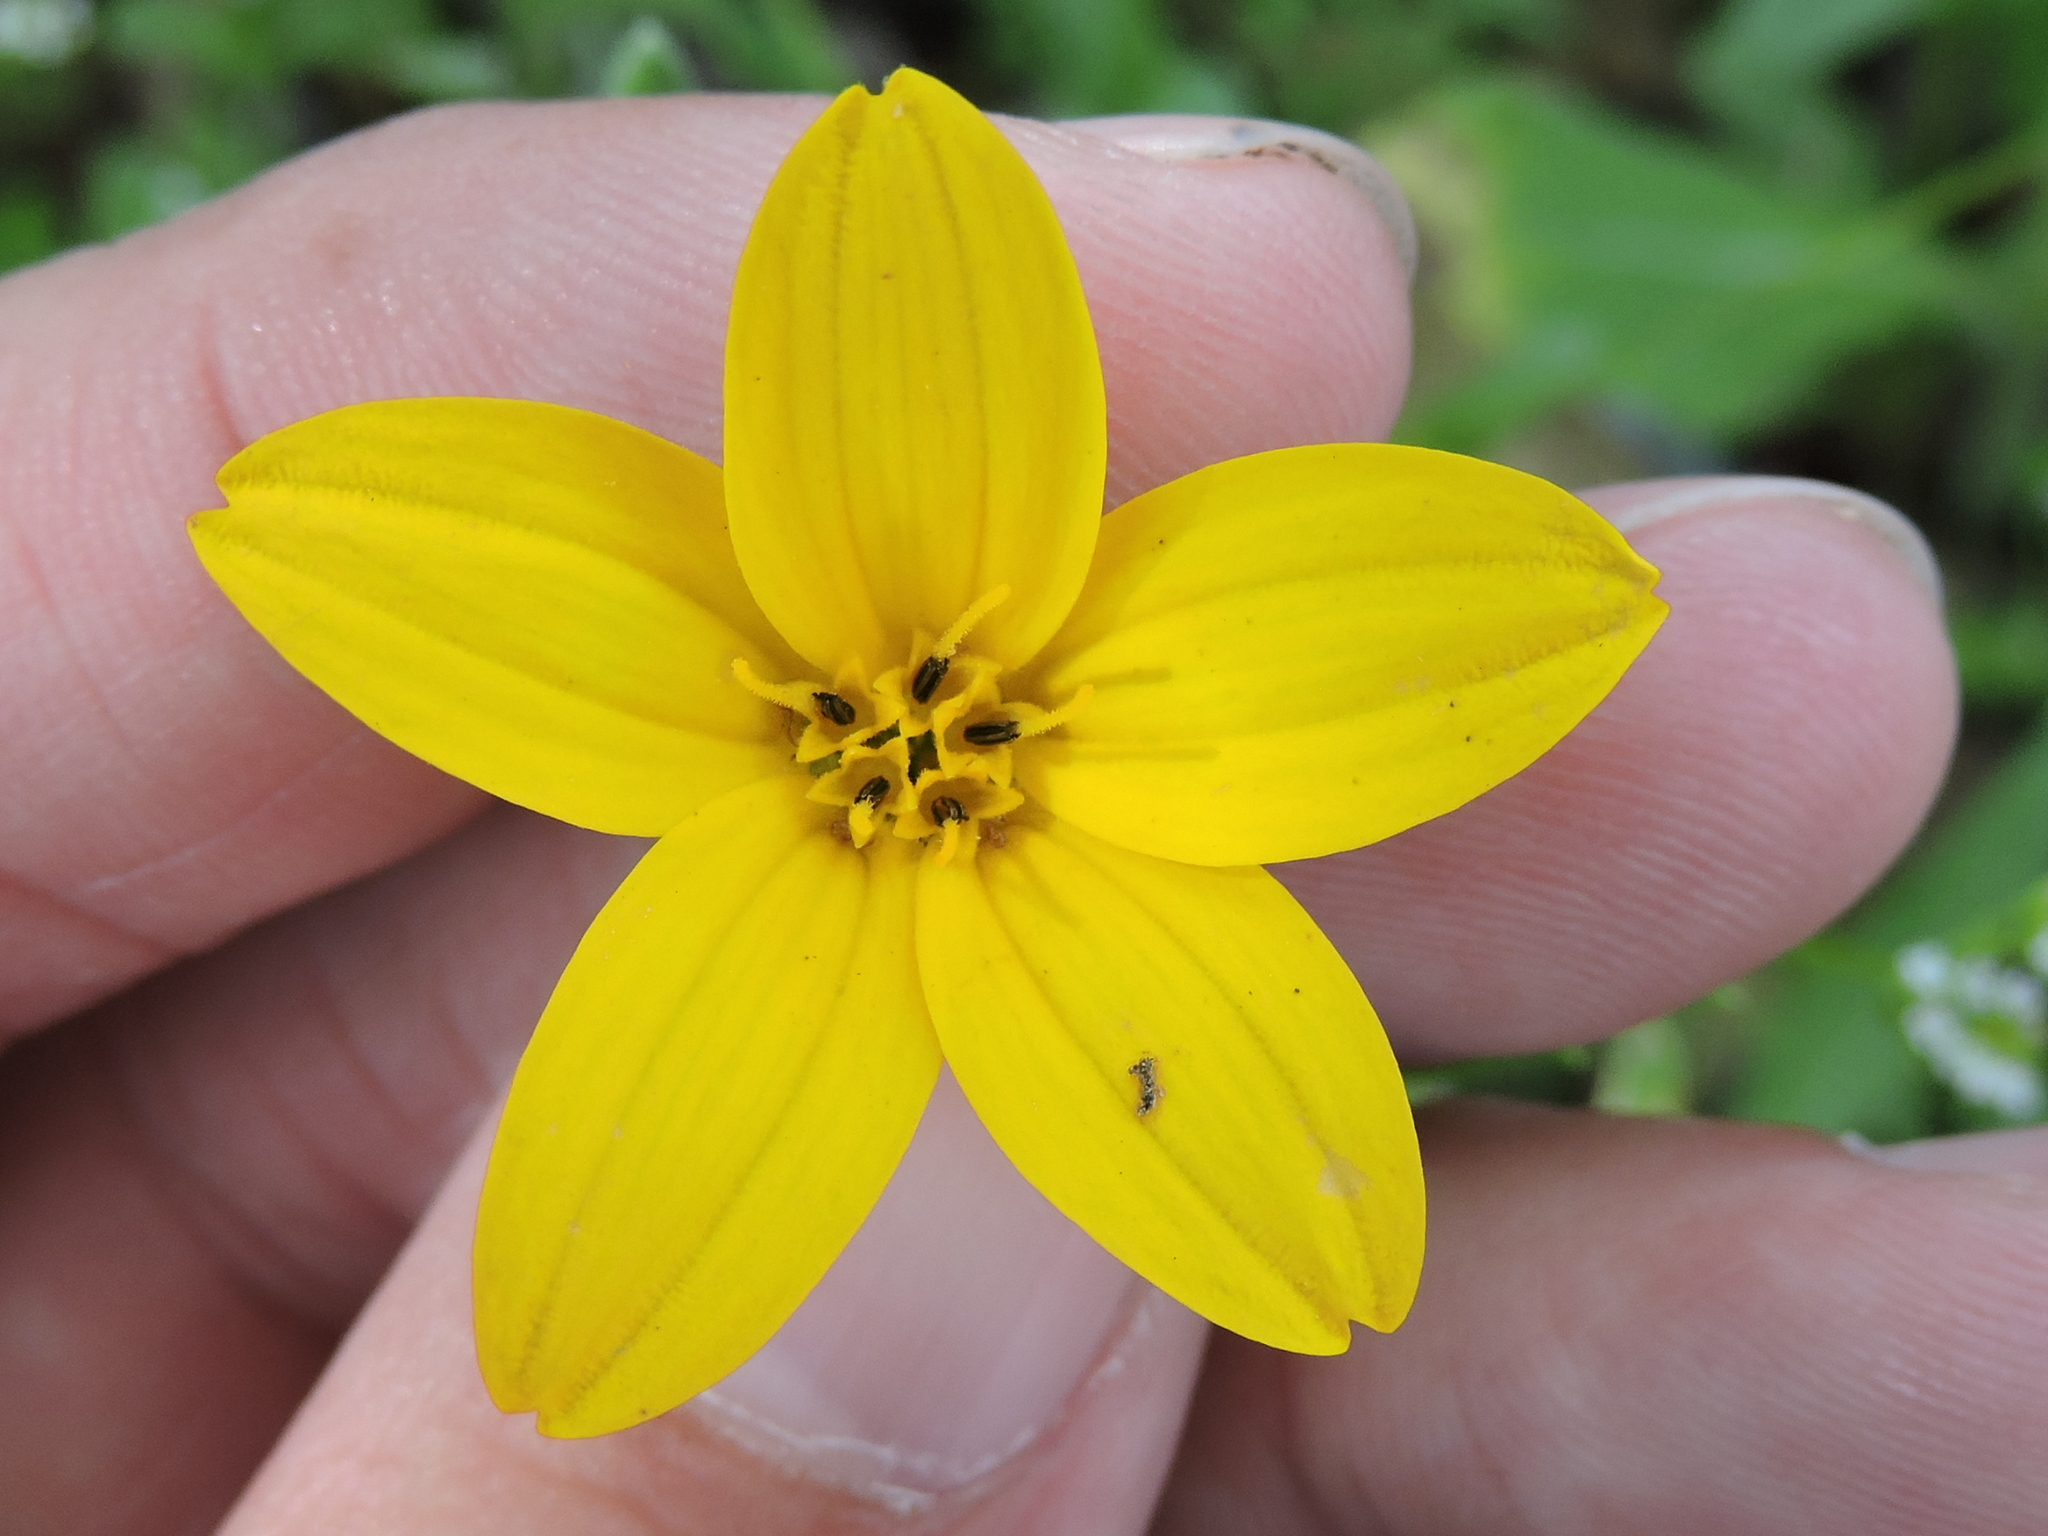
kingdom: Plantae
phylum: Tracheophyta
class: Magnoliopsida
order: Asterales
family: Asteraceae
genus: Lindheimera
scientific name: Lindheimera texana
